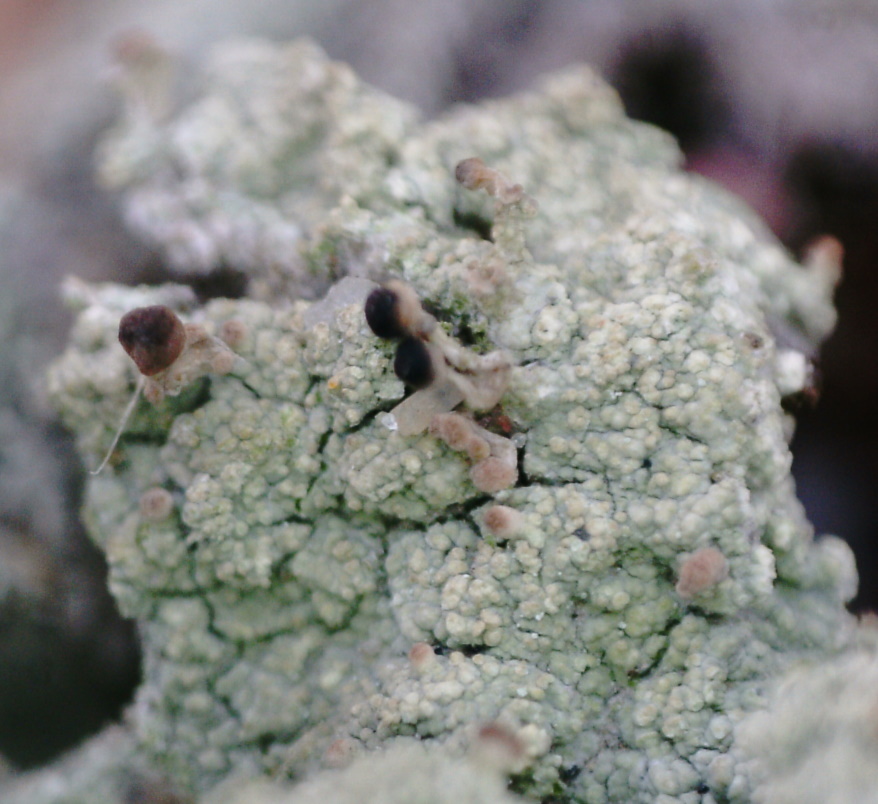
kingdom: Fungi
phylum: Ascomycota
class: Lecanoromycetes
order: Baeomycetales
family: Baeomycetaceae
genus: Baeomyces
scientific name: Baeomyces rufus
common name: Brown beret lichen
